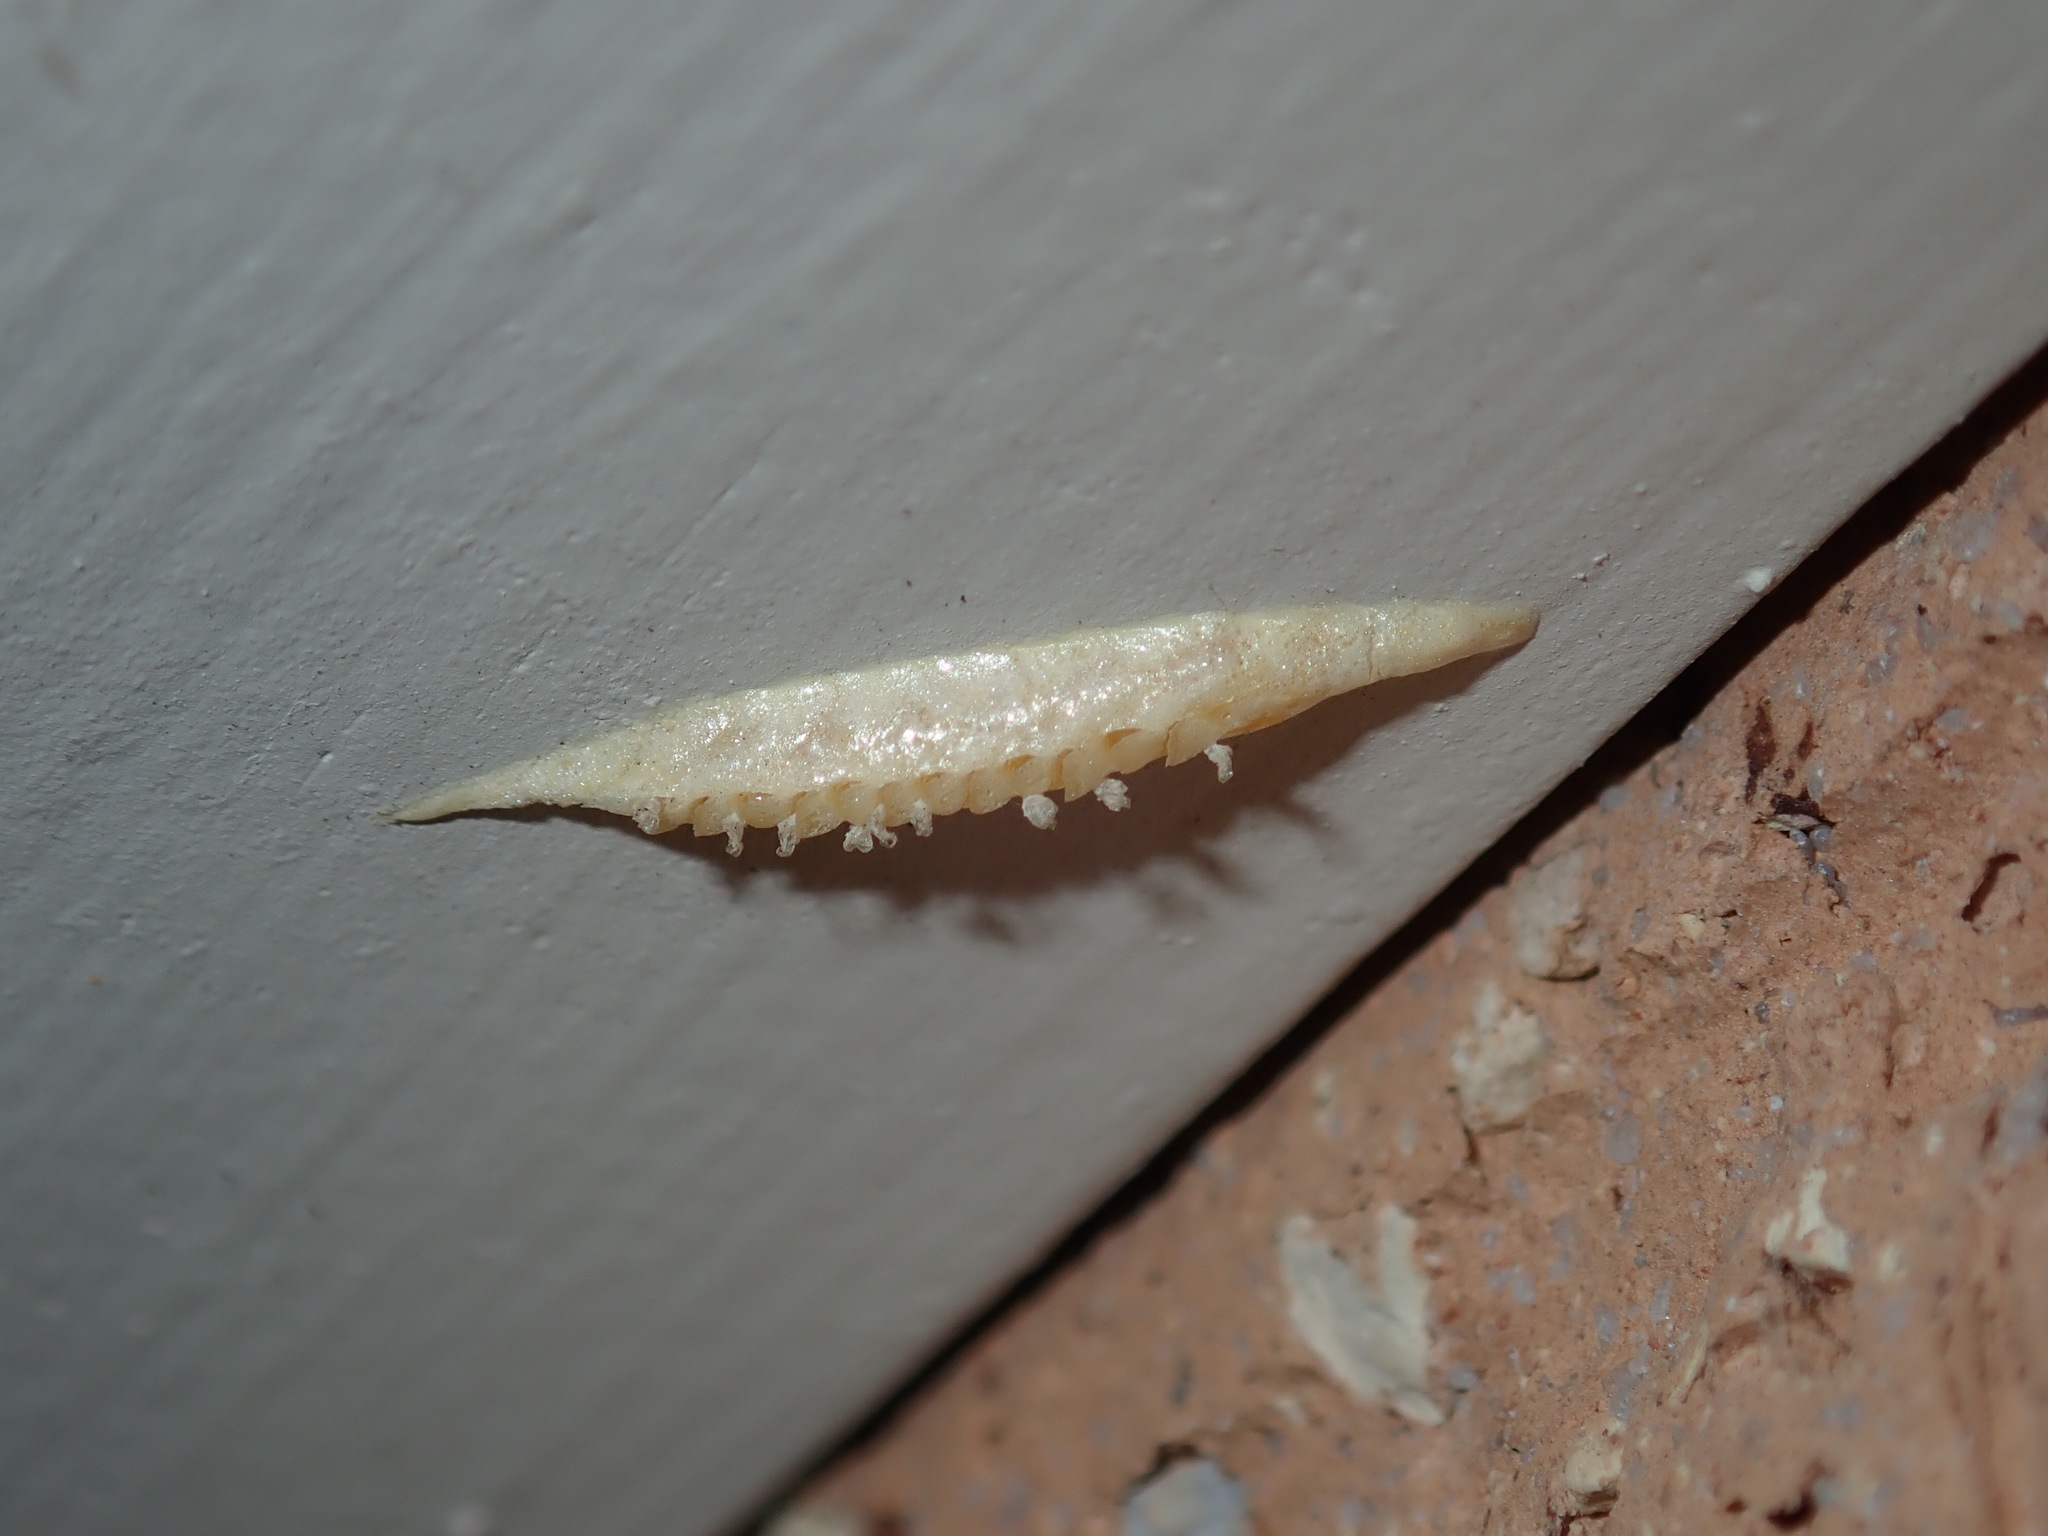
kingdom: Animalia
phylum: Arthropoda
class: Insecta
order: Mantodea
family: Nanomantidae
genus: Kongobatha
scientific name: Kongobatha diademata
